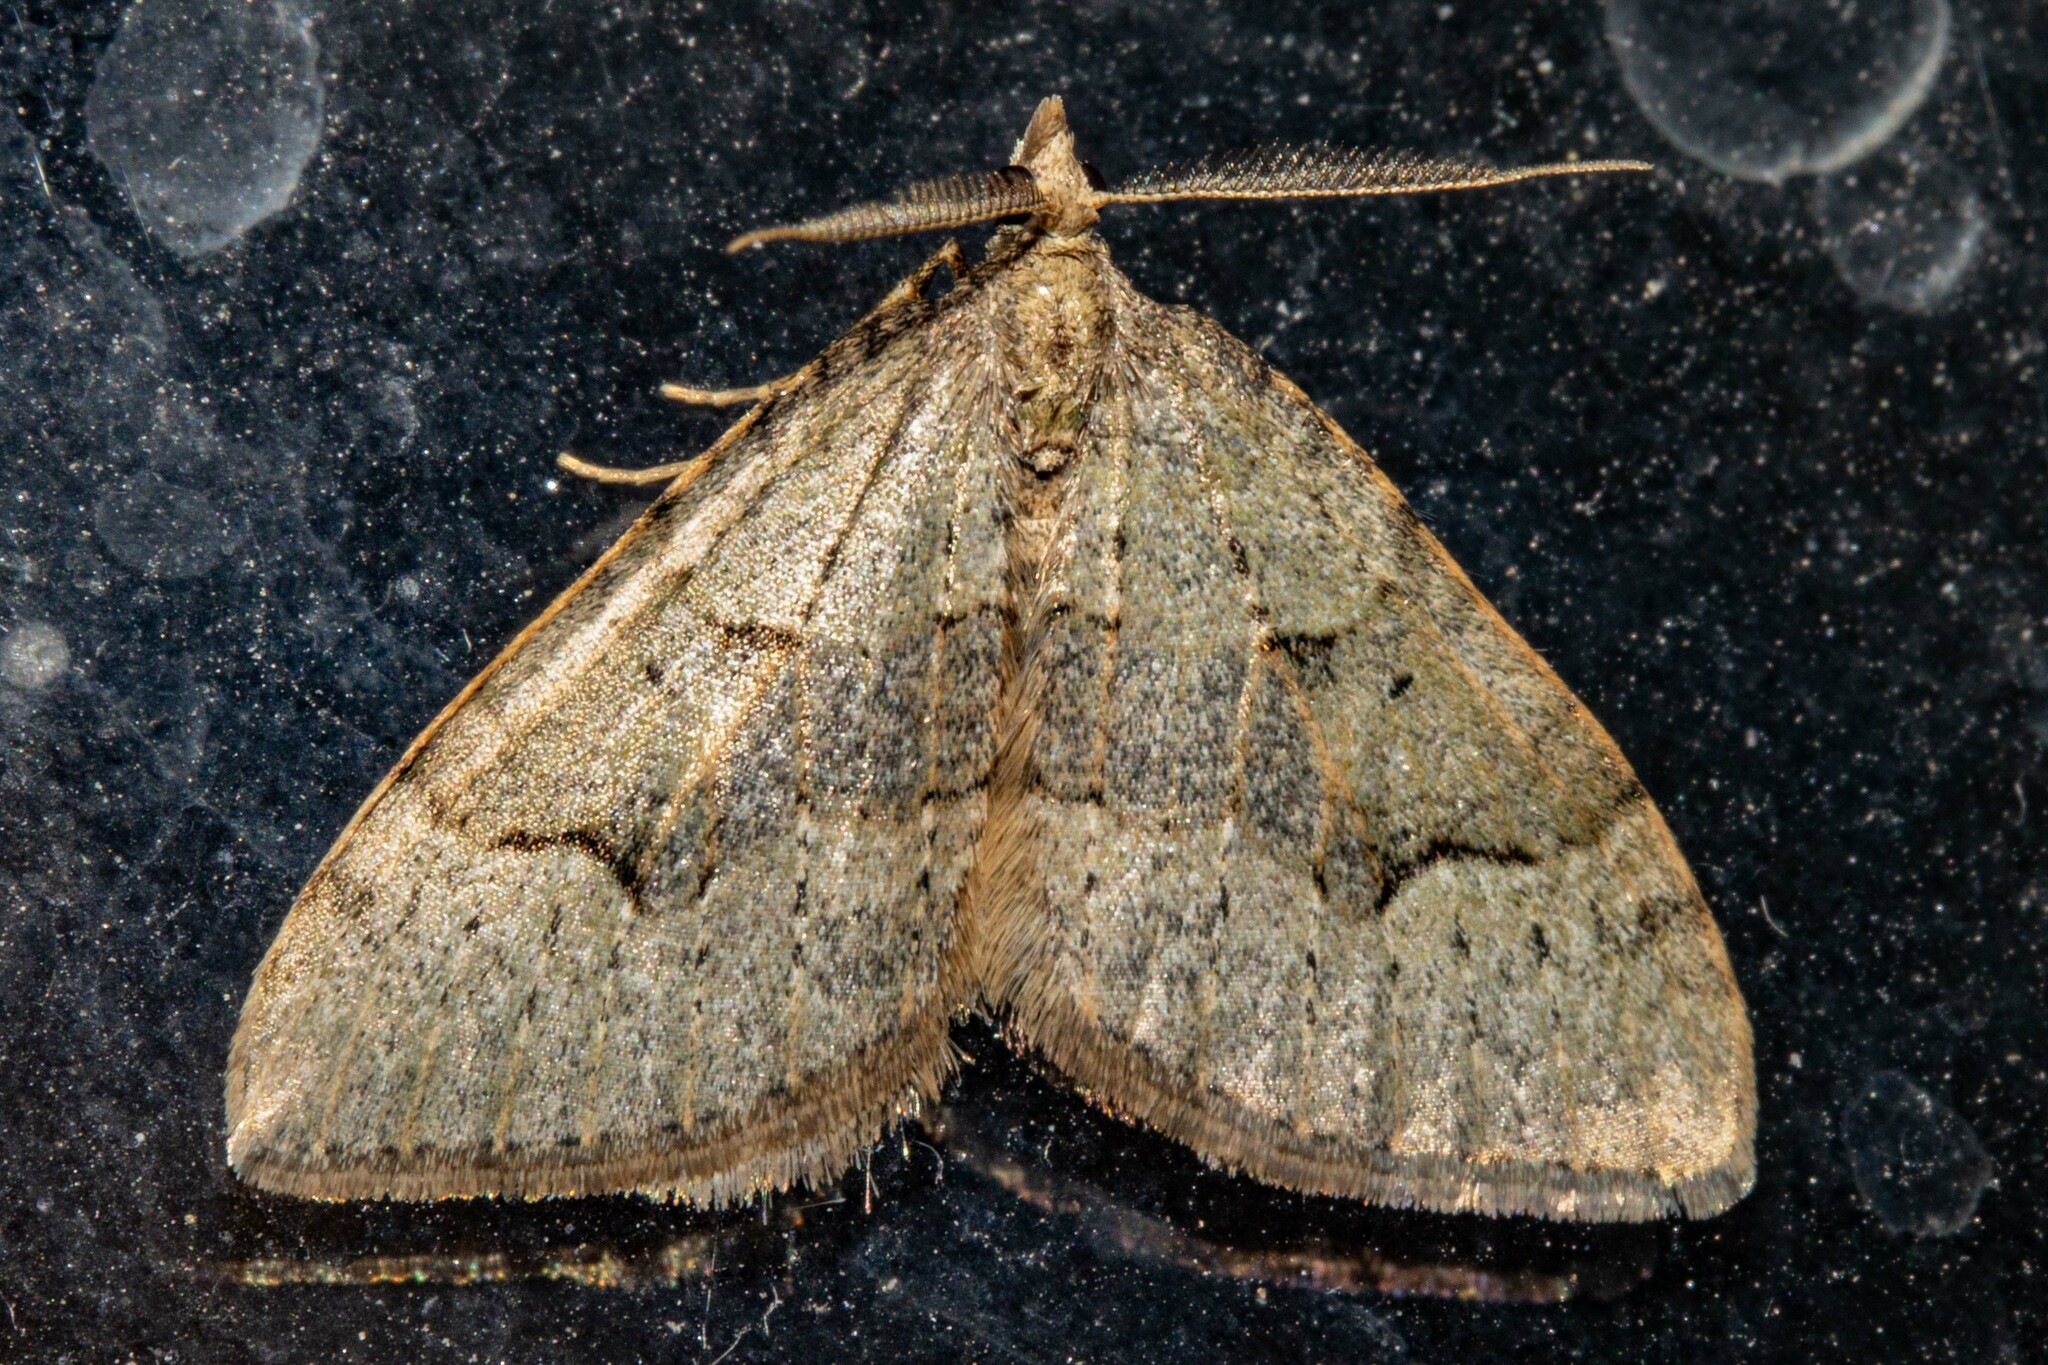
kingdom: Animalia
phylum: Arthropoda
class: Insecta
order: Lepidoptera
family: Geometridae
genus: Epyaxa
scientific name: Epyaxa rosearia
